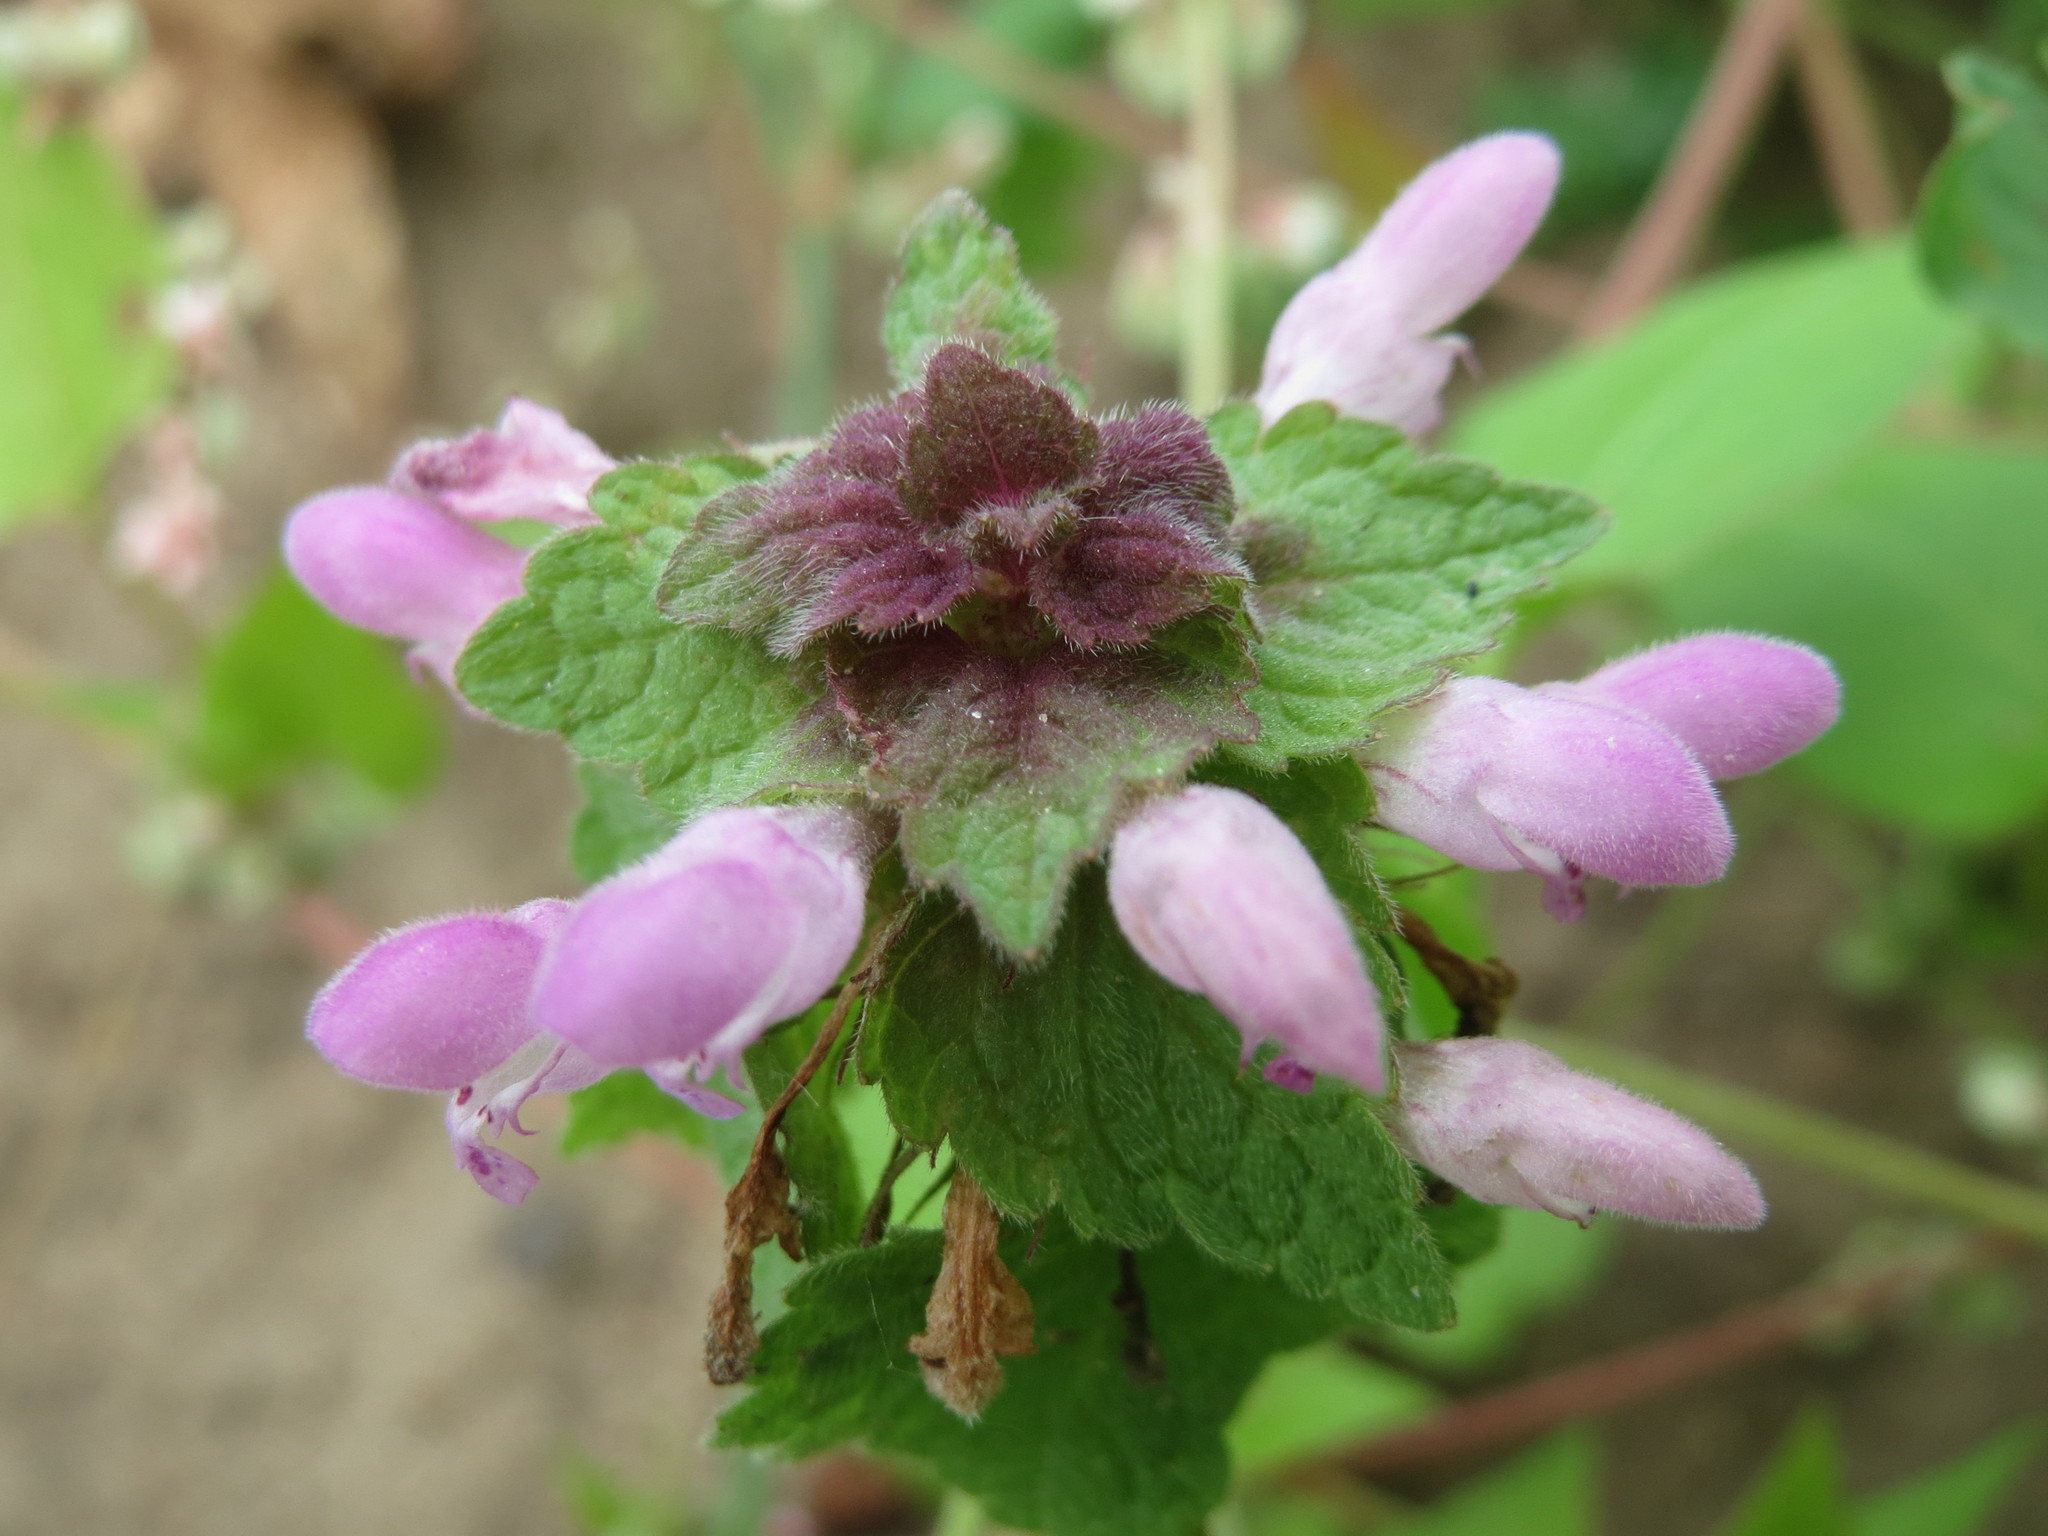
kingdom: Plantae
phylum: Tracheophyta
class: Magnoliopsida
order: Lamiales
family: Lamiaceae
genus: Lamium
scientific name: Lamium purpureum
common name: Red dead-nettle
